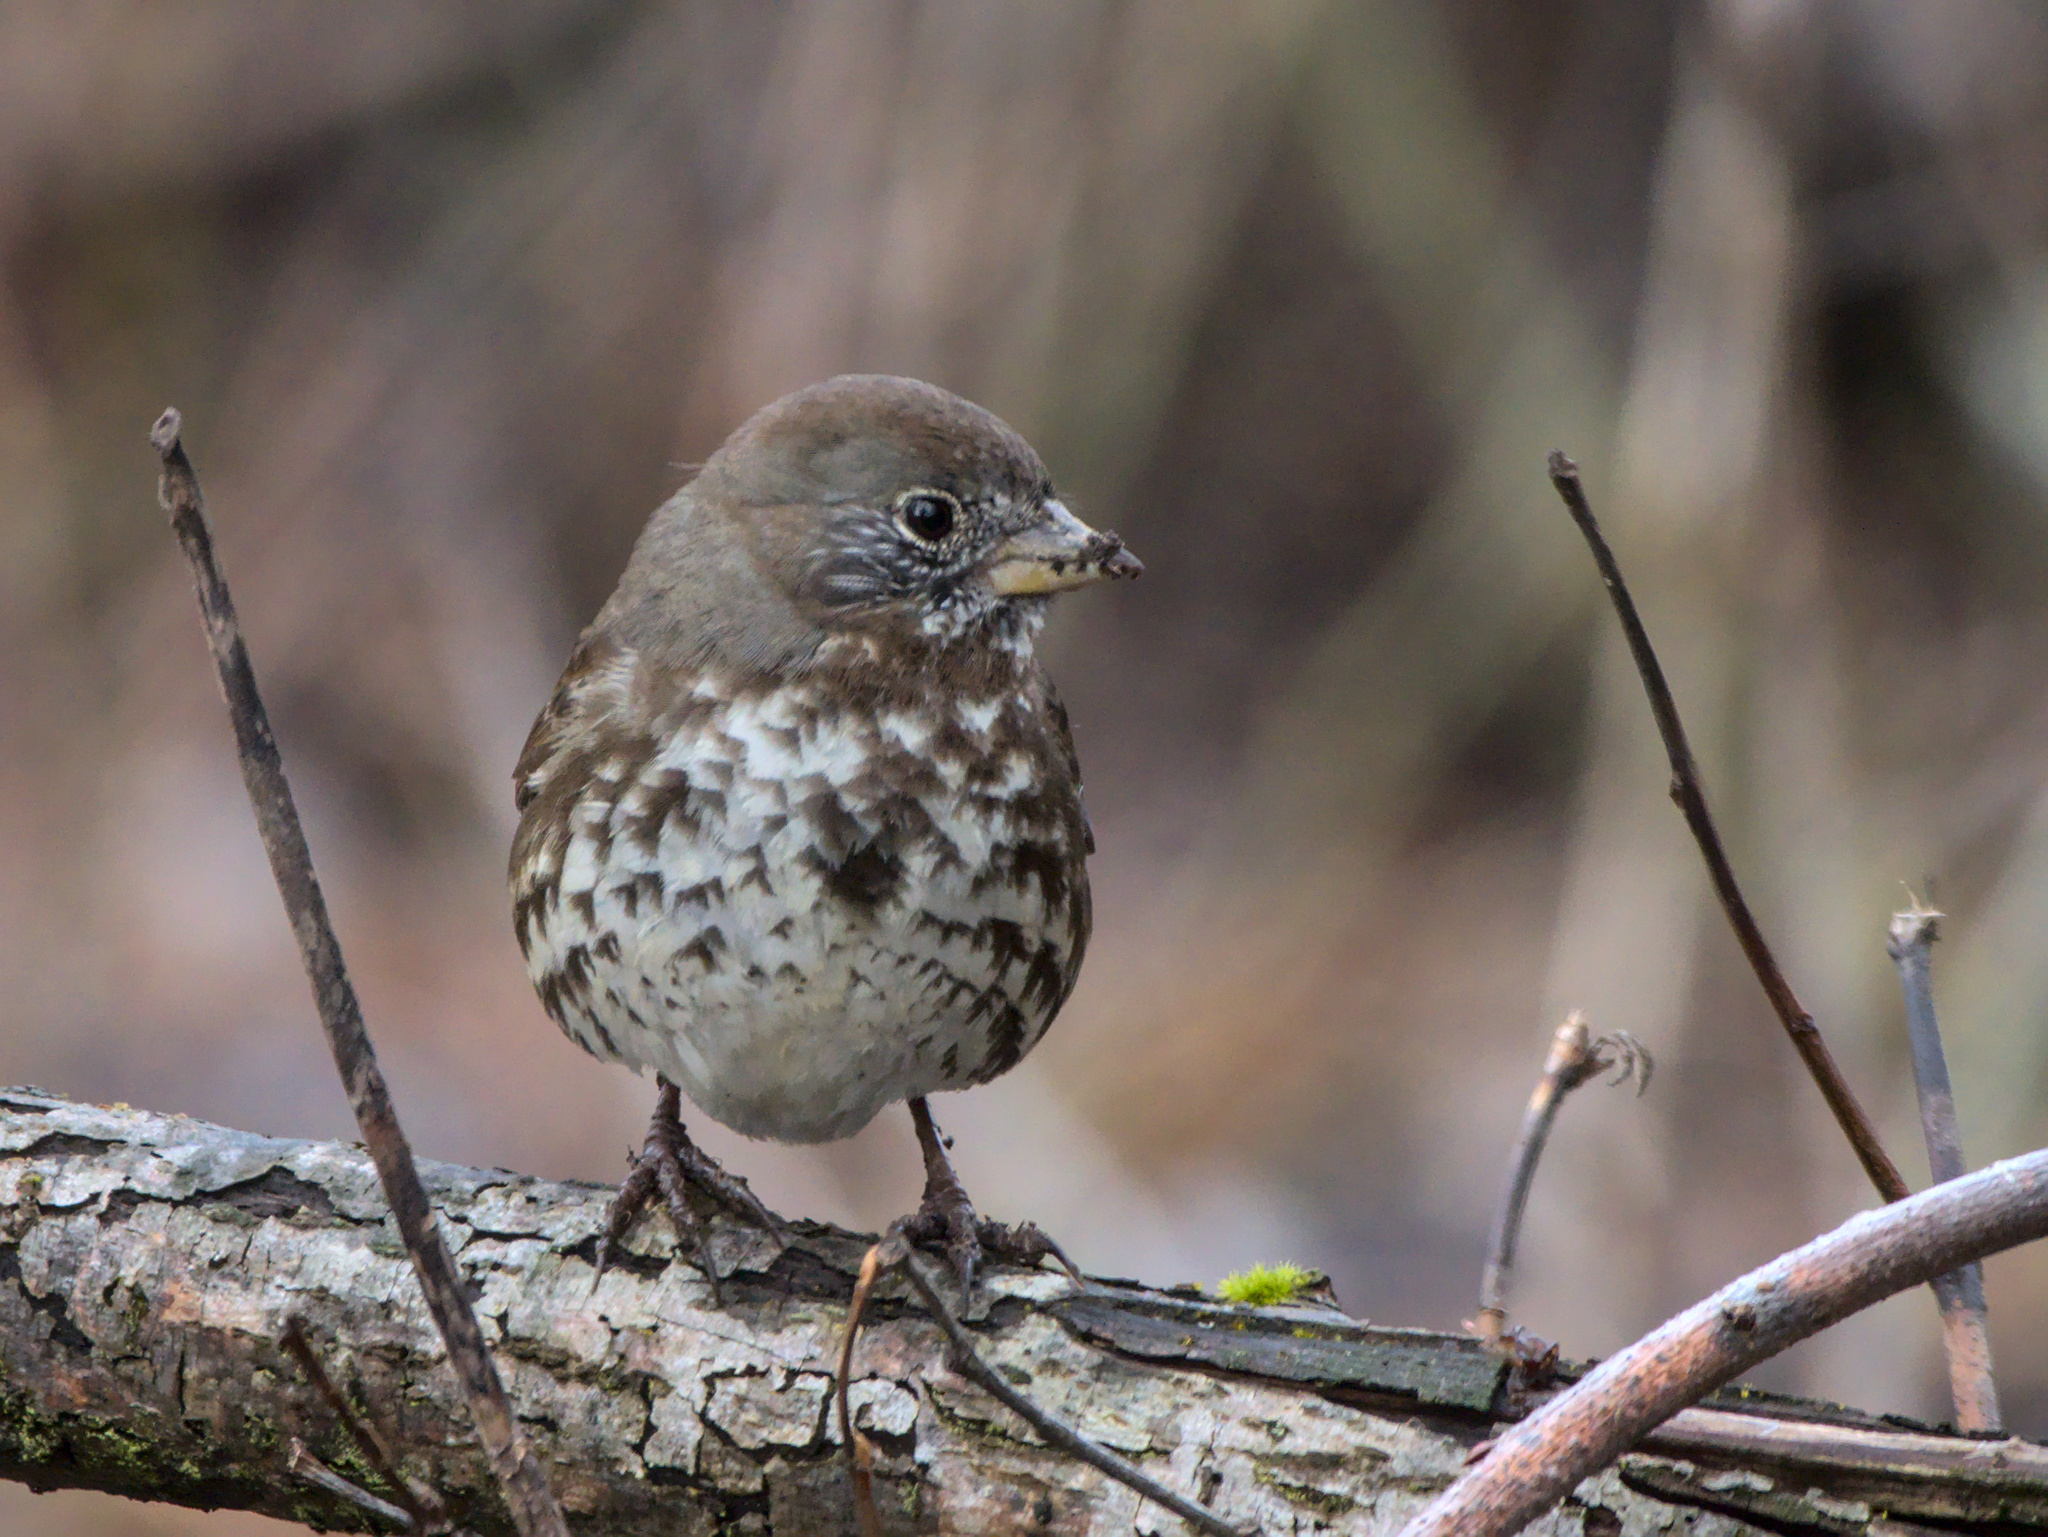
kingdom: Animalia
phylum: Chordata
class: Aves
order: Passeriformes
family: Passerellidae
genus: Passerella
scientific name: Passerella iliaca
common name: Fox sparrow
